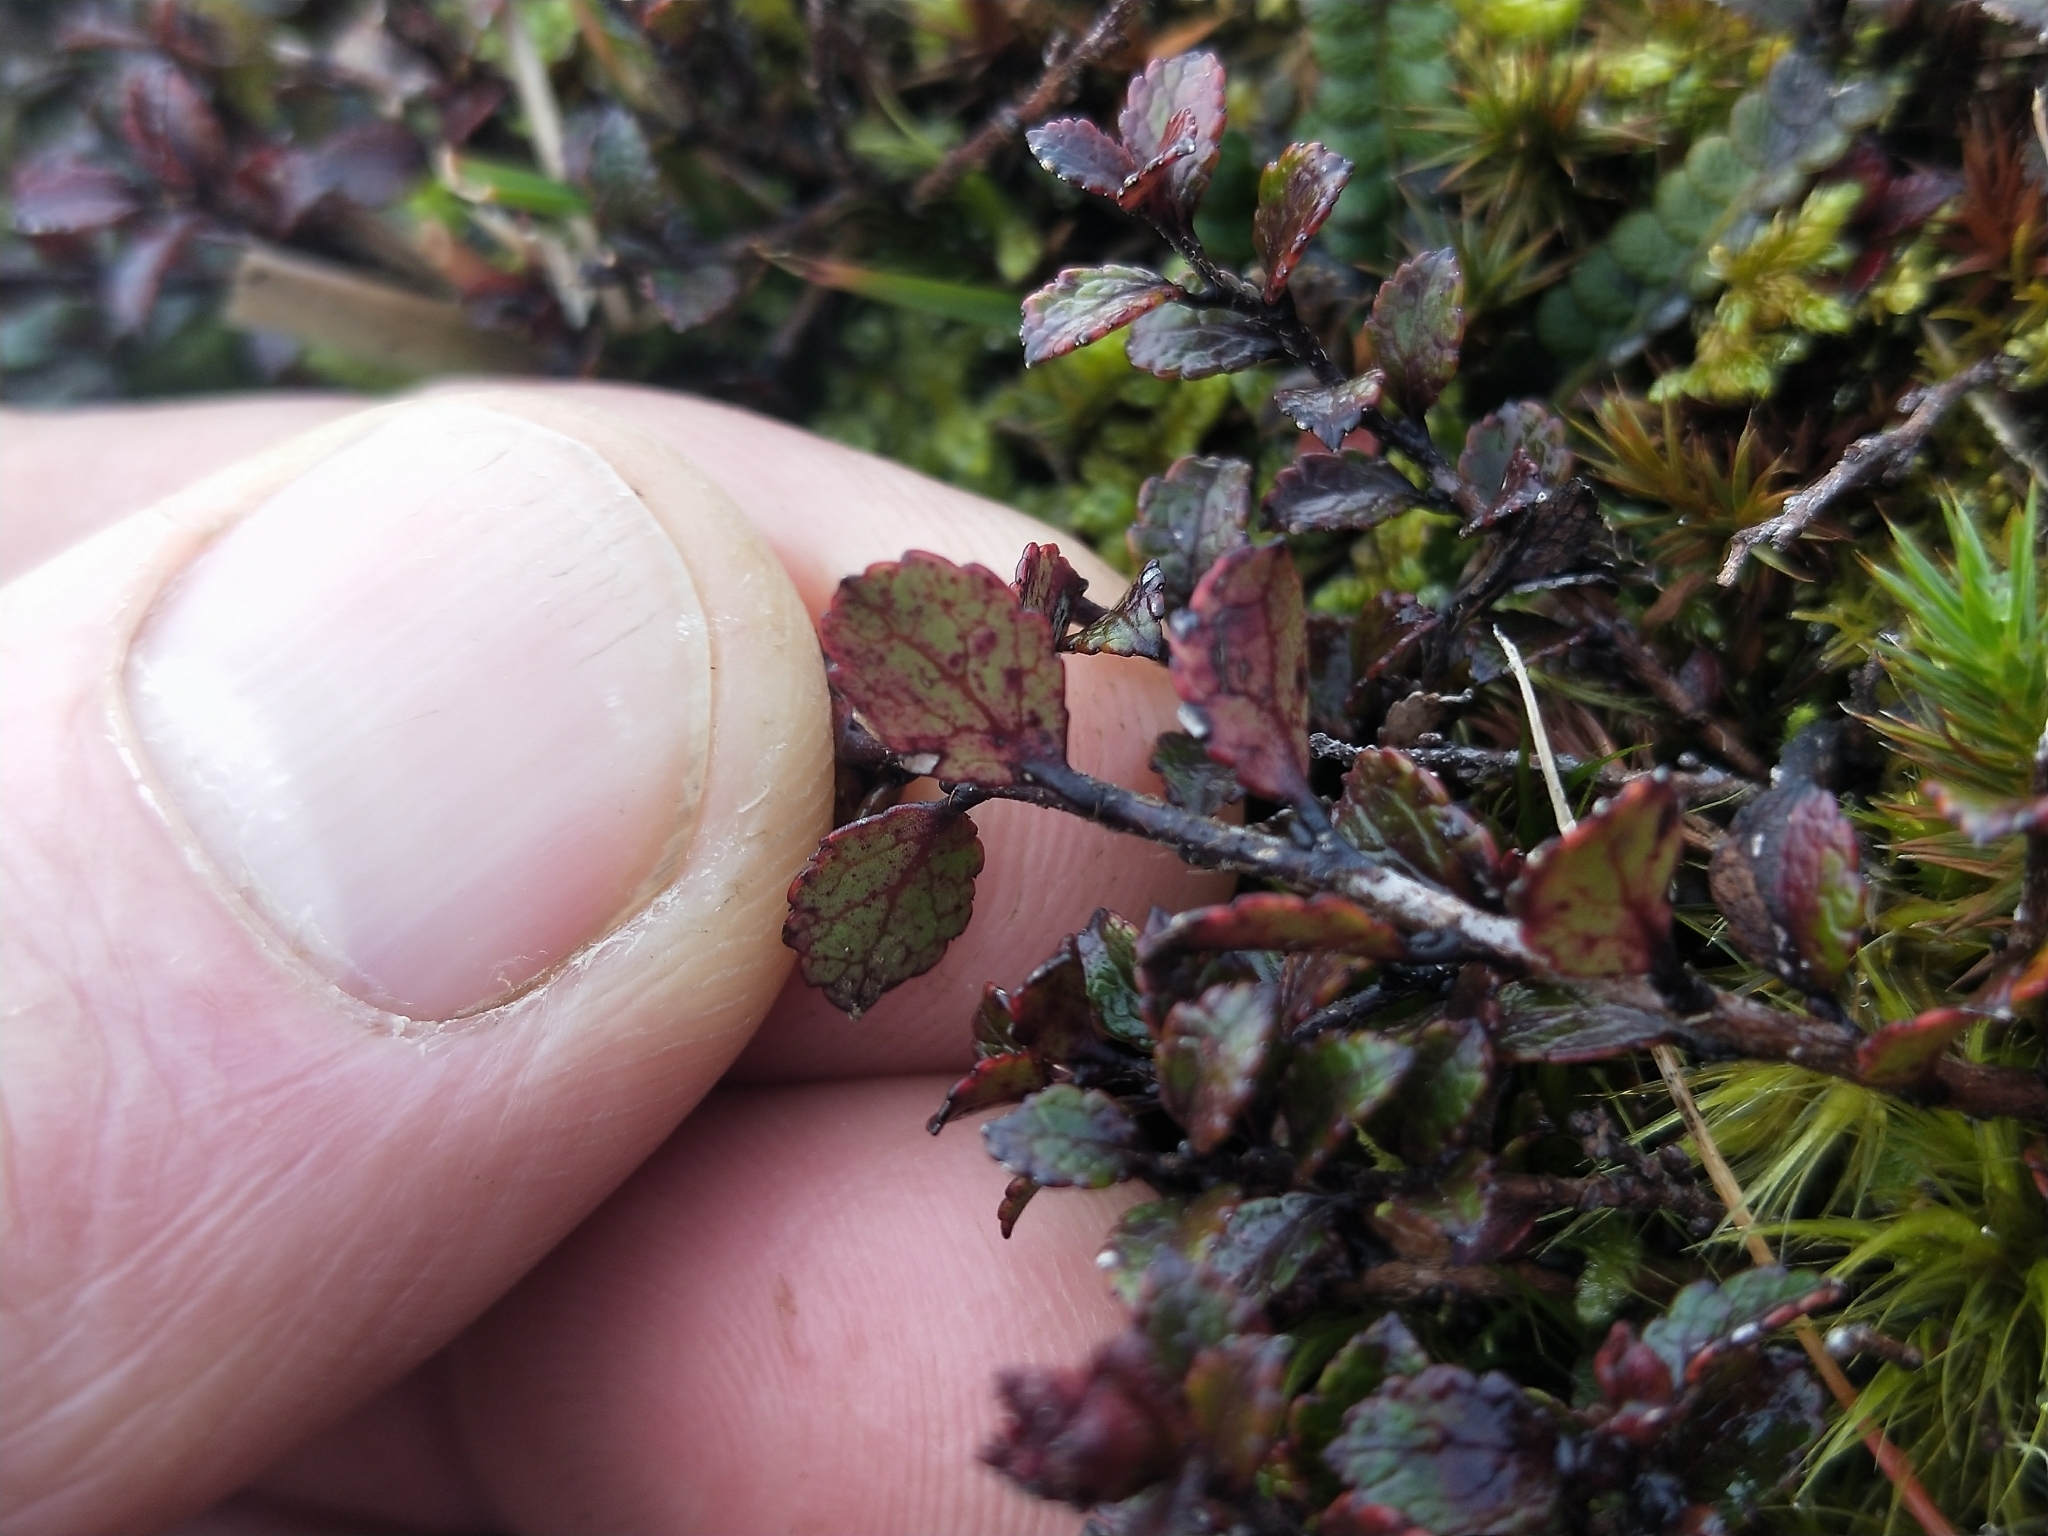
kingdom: Plantae
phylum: Tracheophyta
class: Magnoliopsida
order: Ericales
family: Ericaceae
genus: Gaultheria
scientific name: Gaultheria depressa
